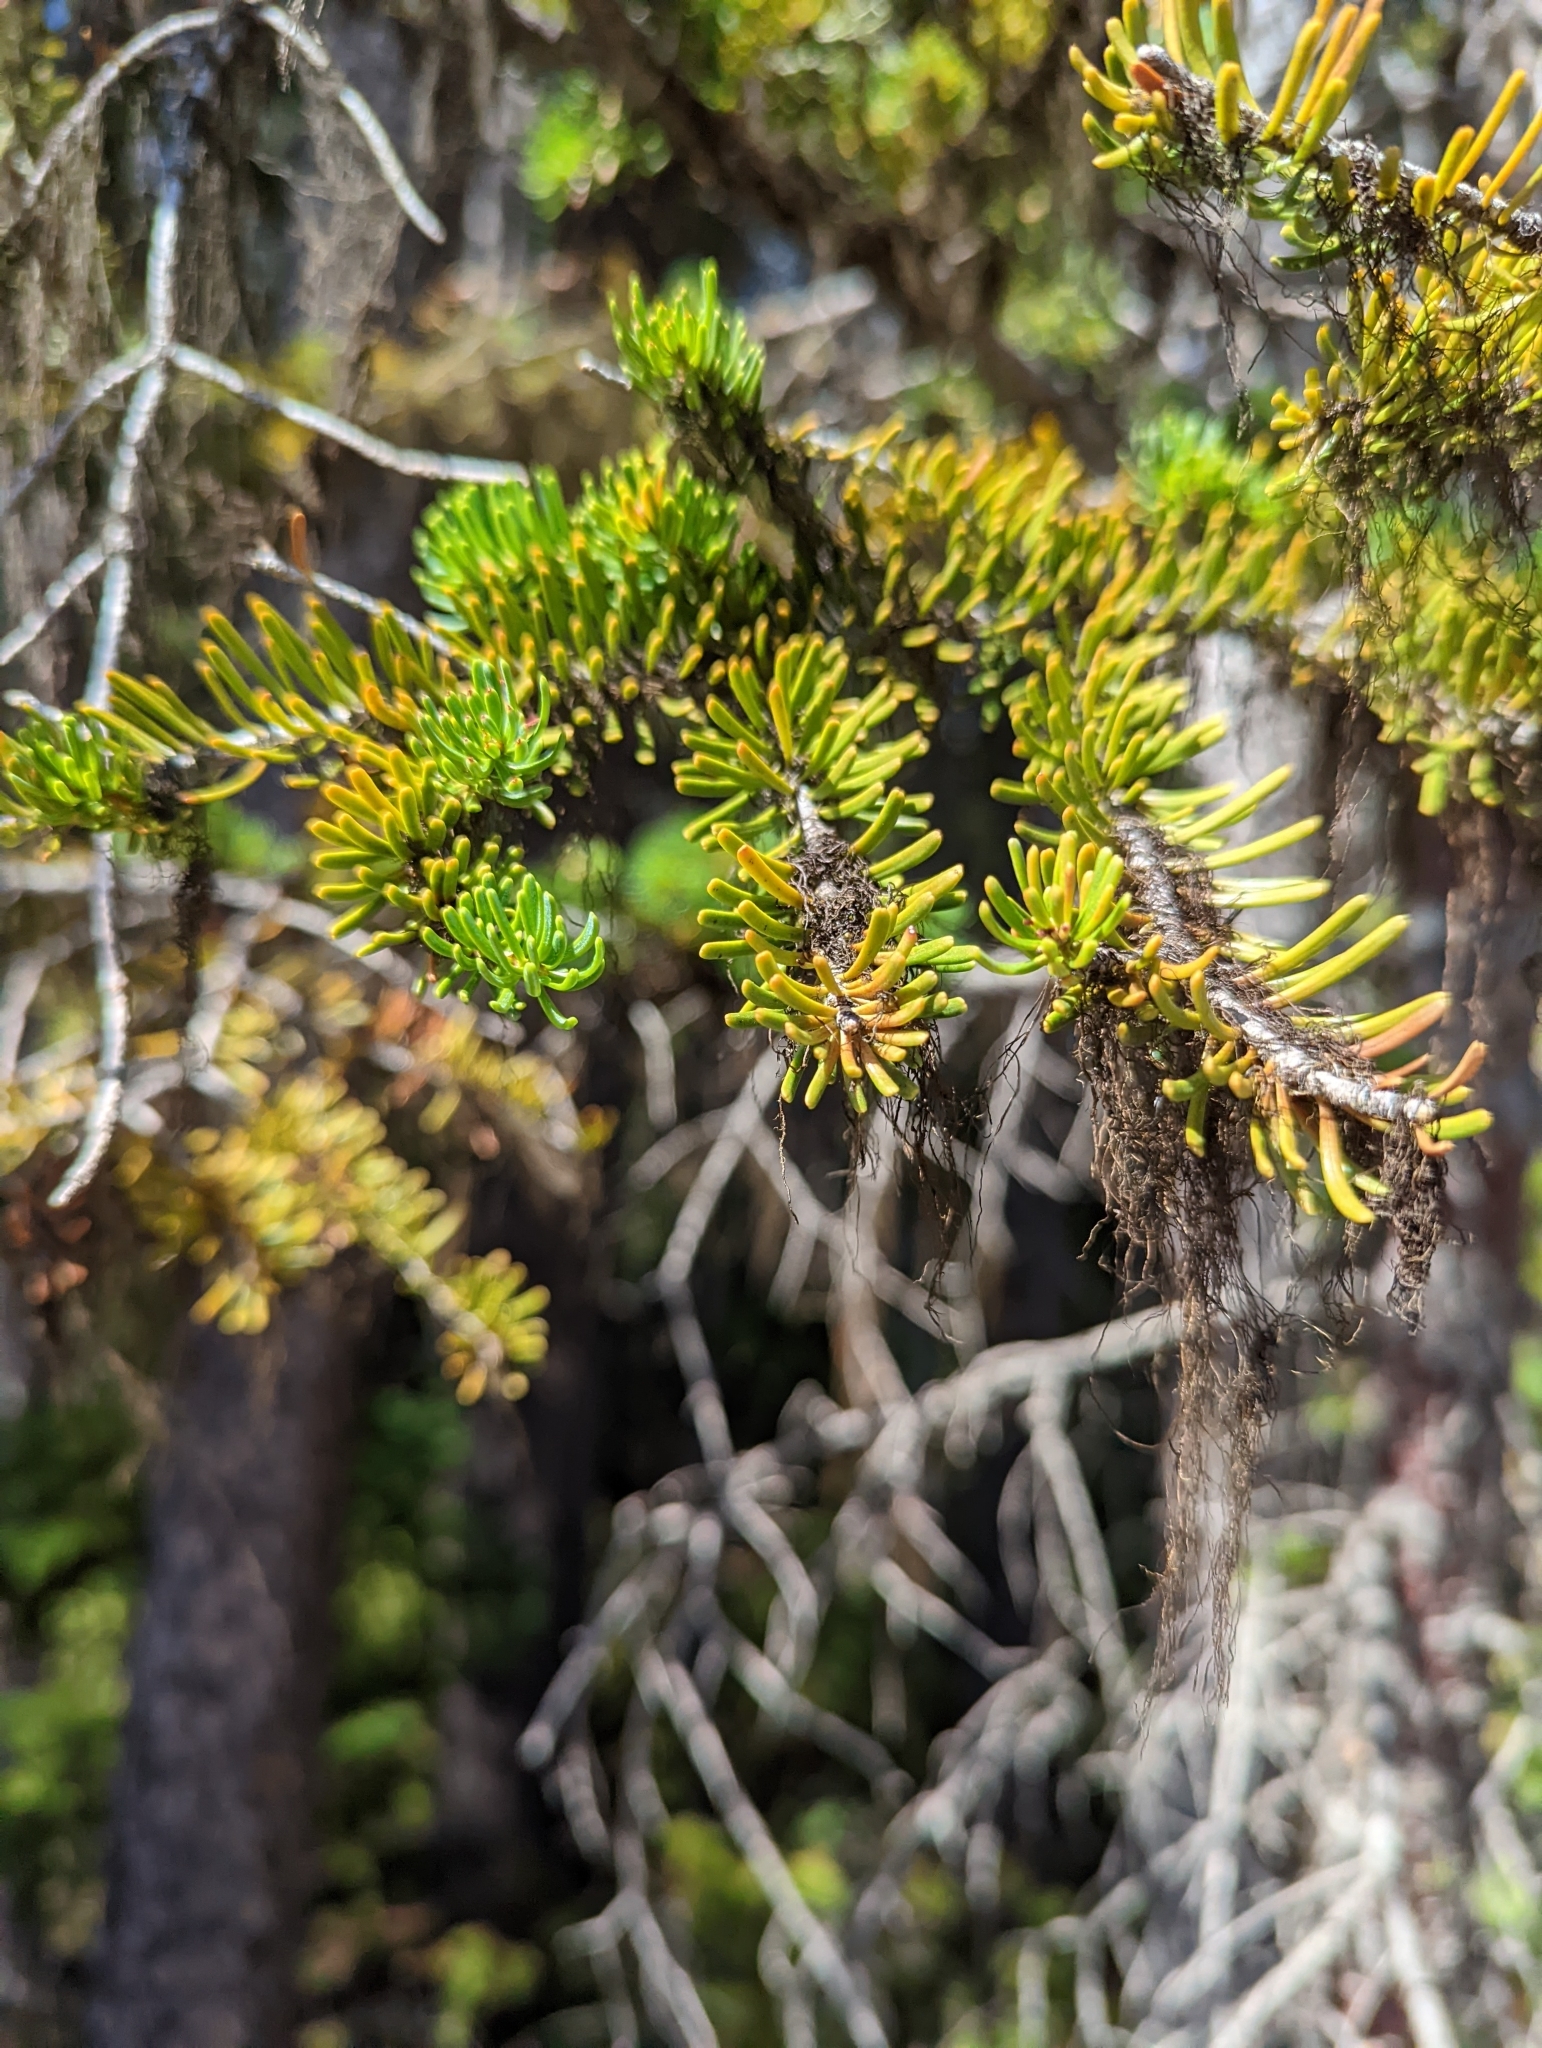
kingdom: Plantae
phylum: Tracheophyta
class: Pinopsida
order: Pinales
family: Pinaceae
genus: Abies
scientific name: Abies lasiocarpa
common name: Subalpine fir
